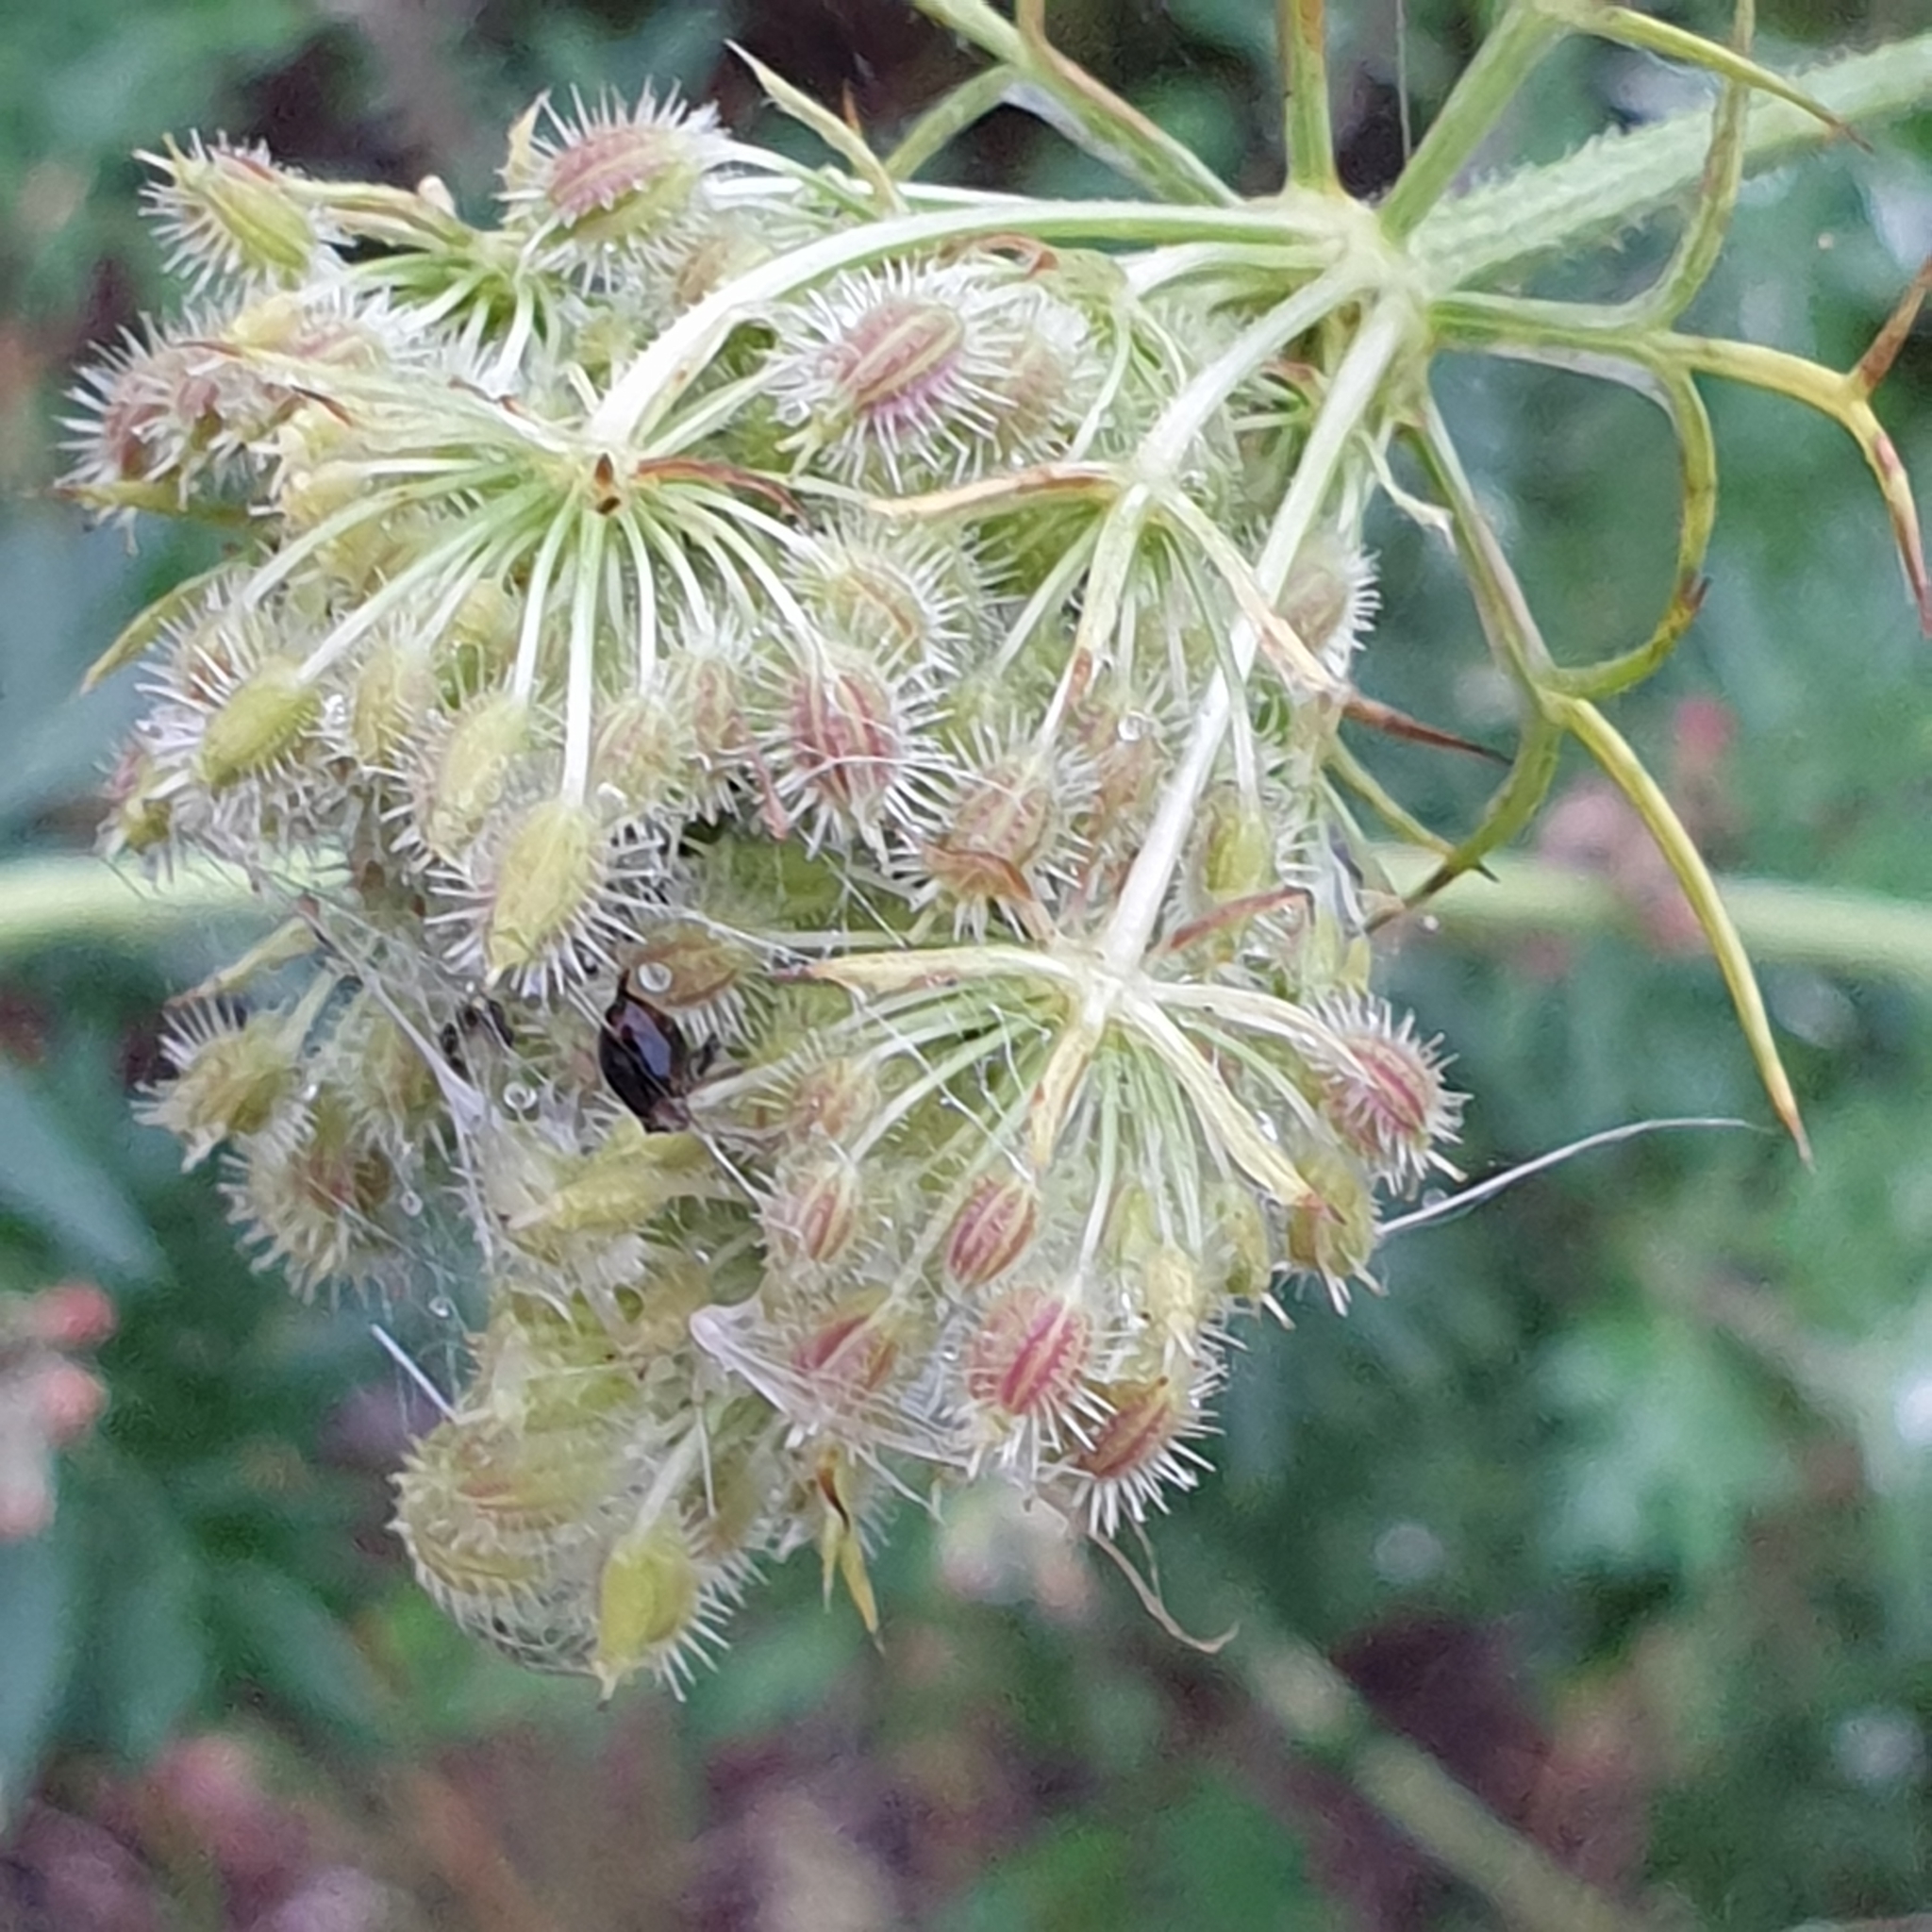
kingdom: Plantae
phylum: Tracheophyta
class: Magnoliopsida
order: Apiales
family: Apiaceae
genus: Daucus
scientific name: Daucus carota
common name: Wild carrot
